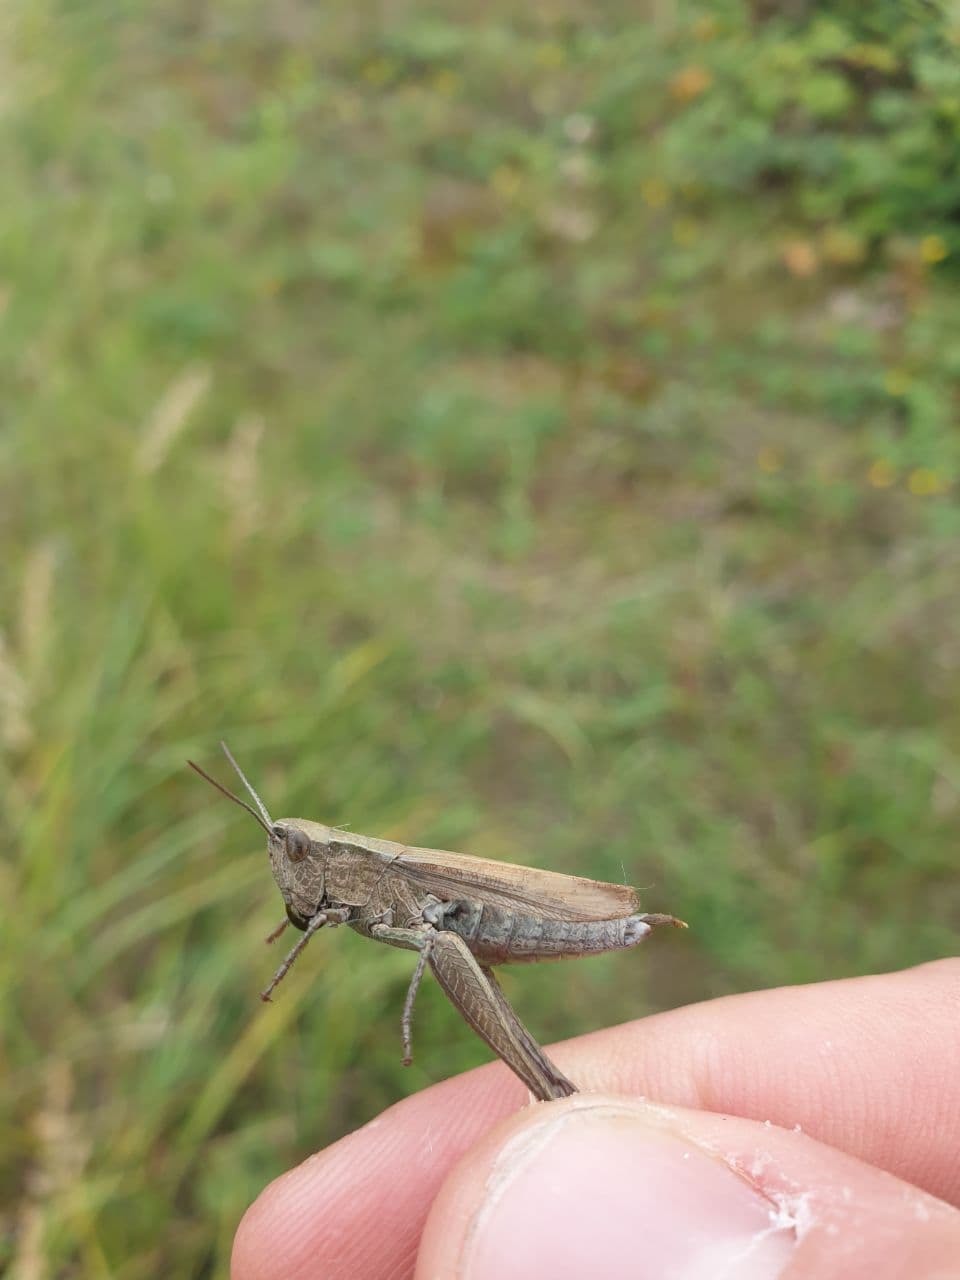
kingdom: Animalia
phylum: Arthropoda
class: Insecta
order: Orthoptera
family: Acrididae
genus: Chorthippus
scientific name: Chorthippus dorsatus
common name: Steppe grasshopper
